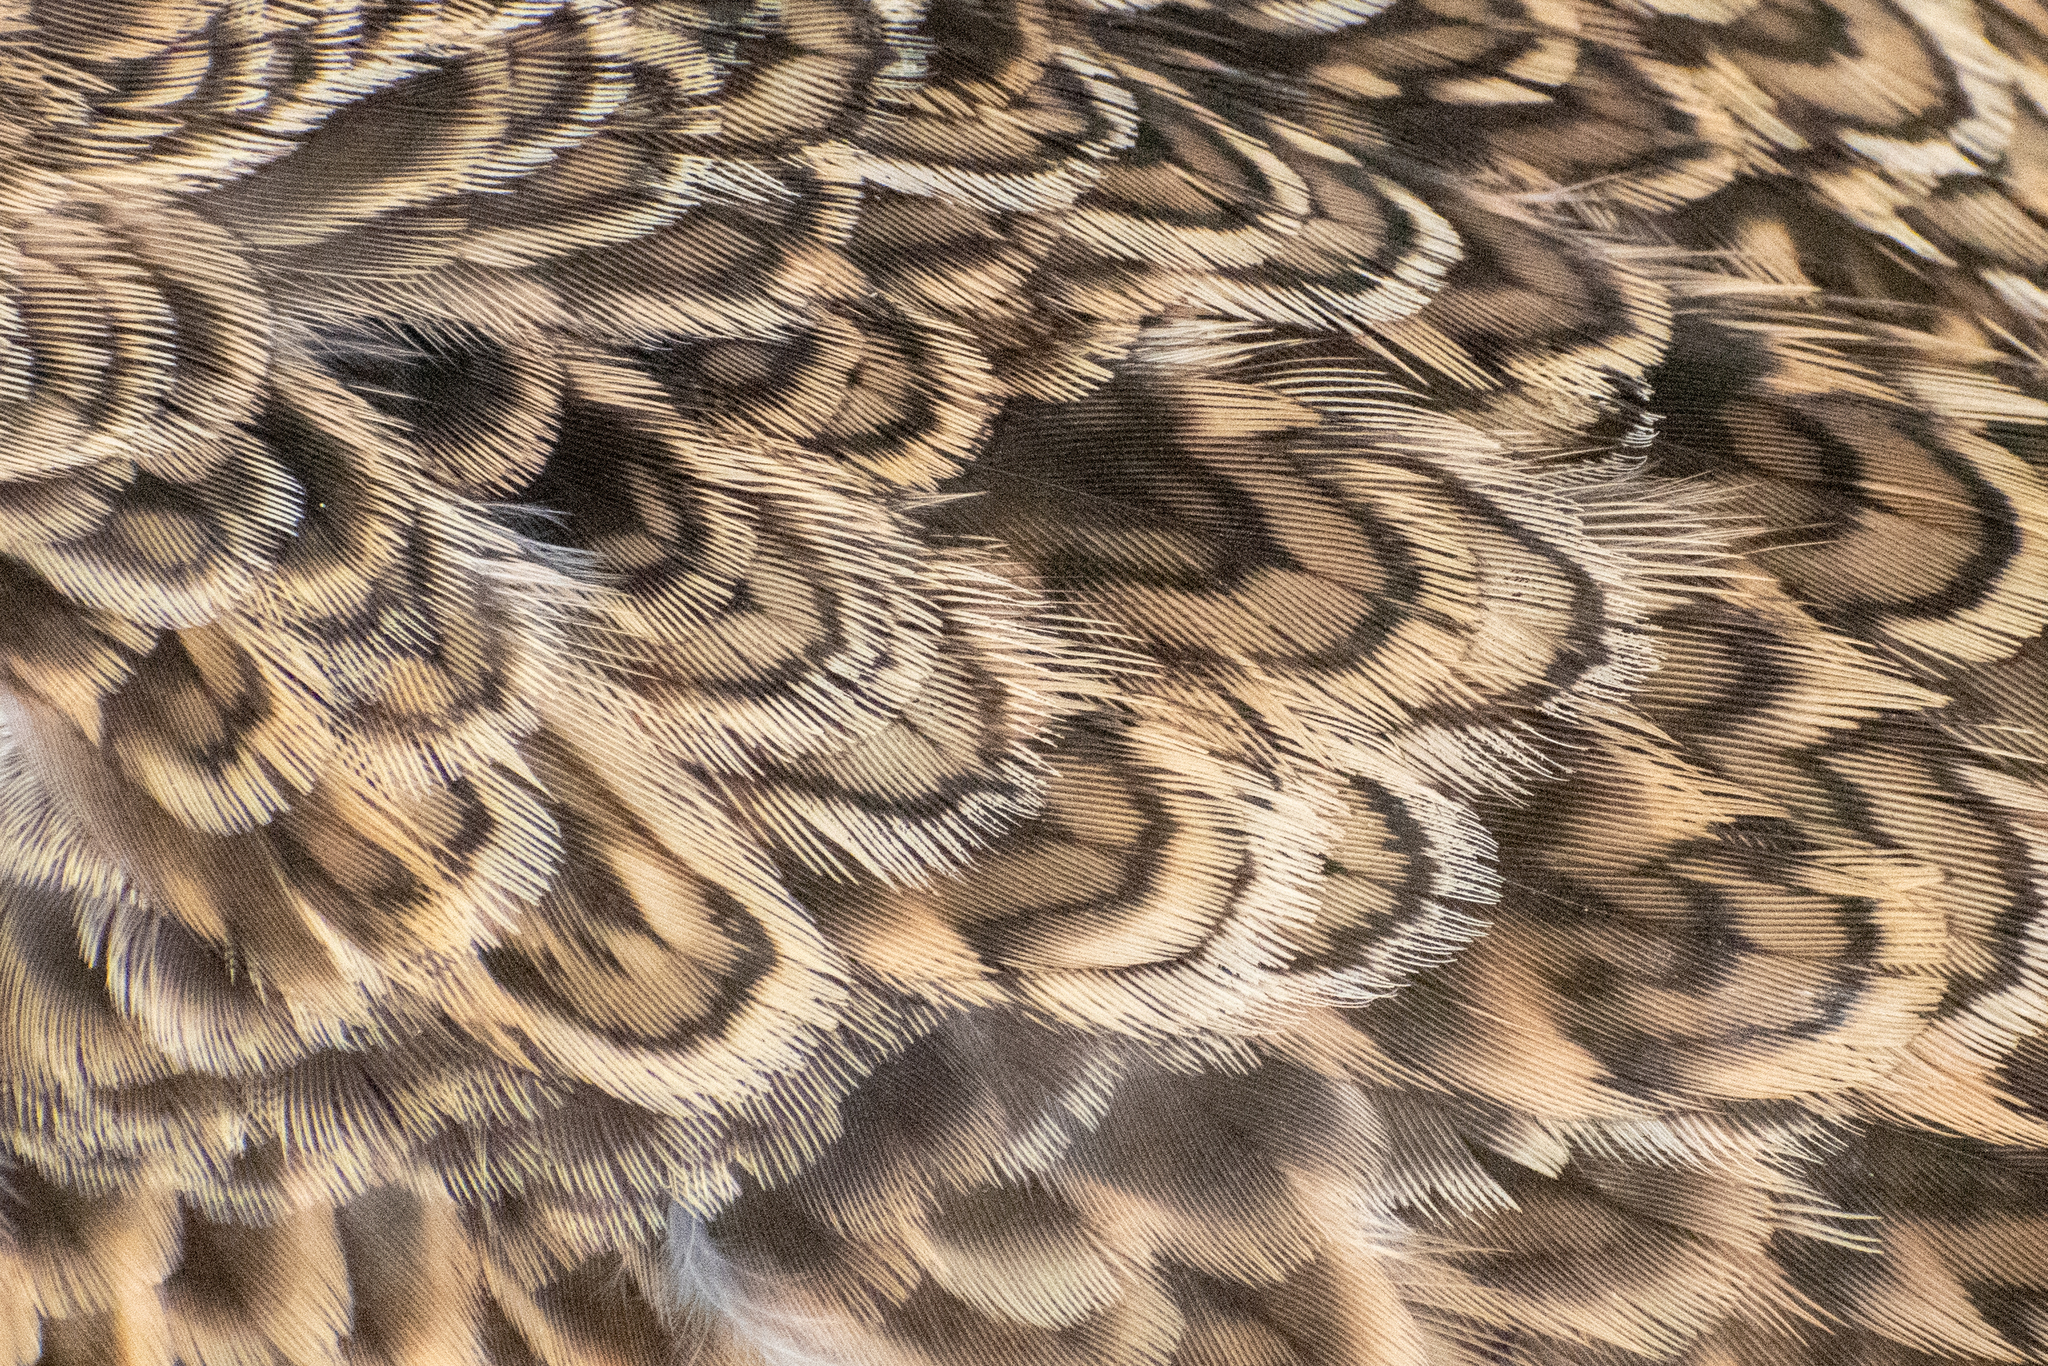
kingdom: Animalia
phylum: Chordata
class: Aves
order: Charadriiformes
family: Thinocoridae
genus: Thinocorus
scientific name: Thinocorus rumicivorus
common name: Least seedsnipe
